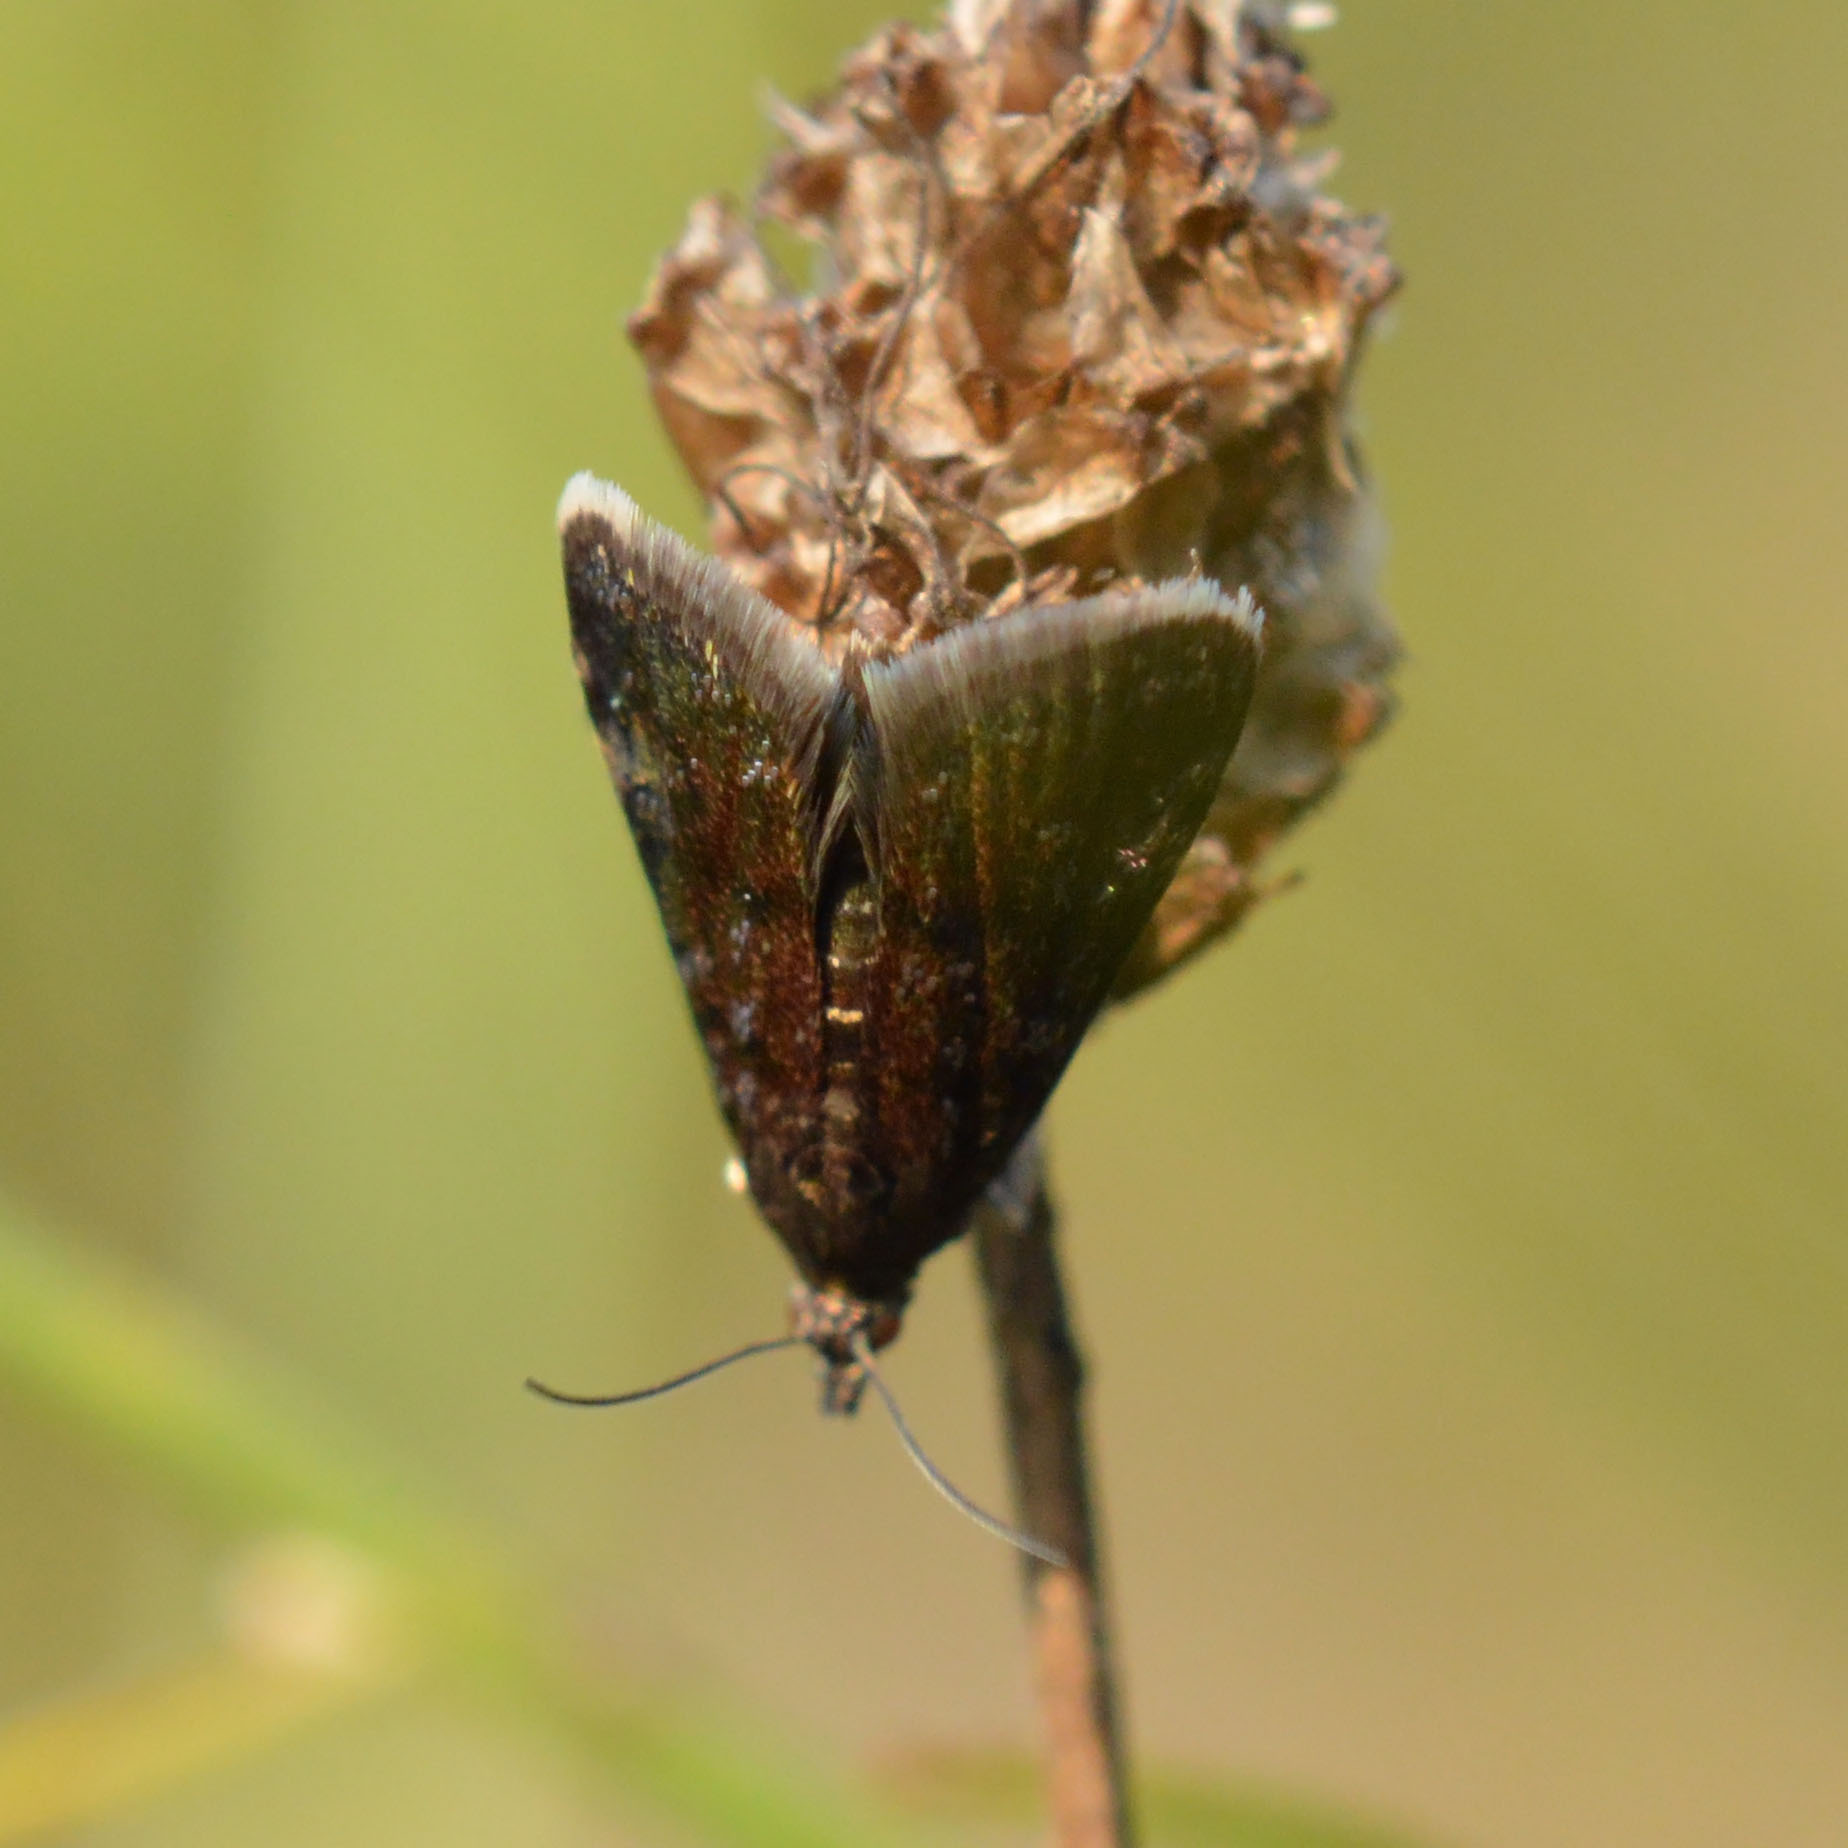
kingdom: Animalia
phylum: Arthropoda
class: Insecta
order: Lepidoptera
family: Crambidae
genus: Heliothela
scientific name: Heliothela wulfeniana
